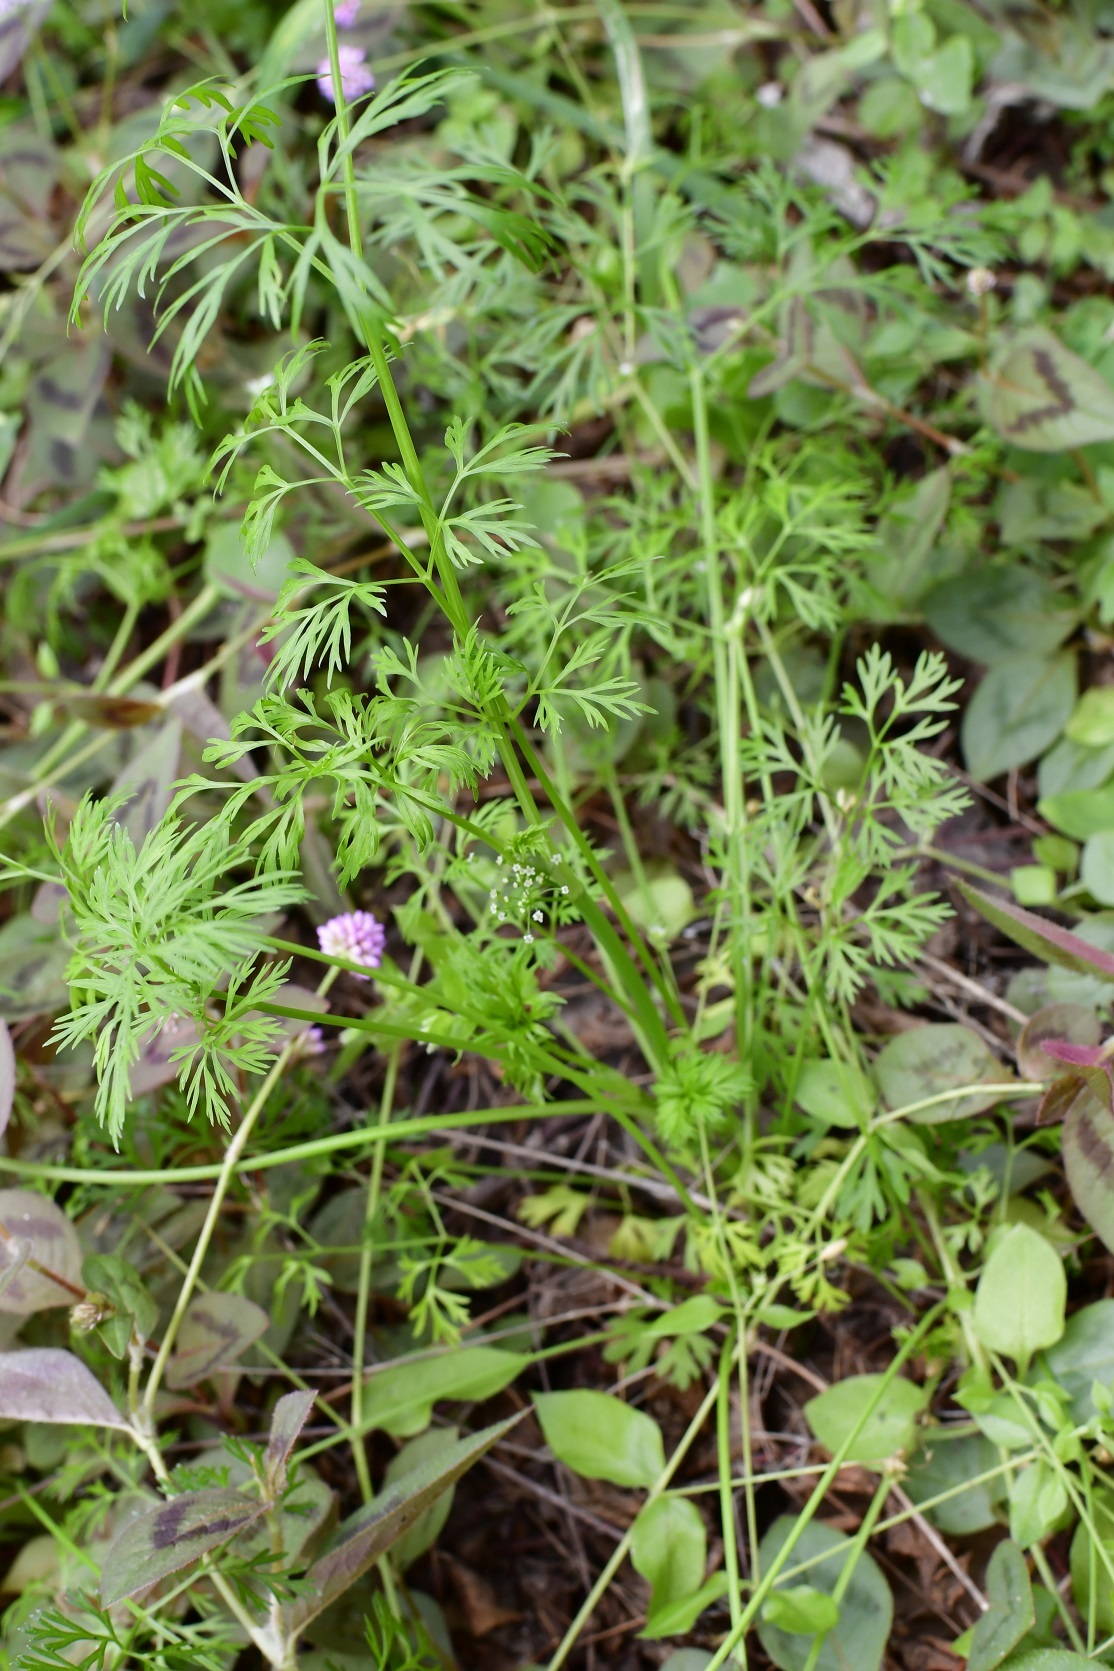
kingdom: Plantae
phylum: Tracheophyta
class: Magnoliopsida
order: Apiales
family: Apiaceae
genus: Cyclospermum
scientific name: Cyclospermum leptophyllum
